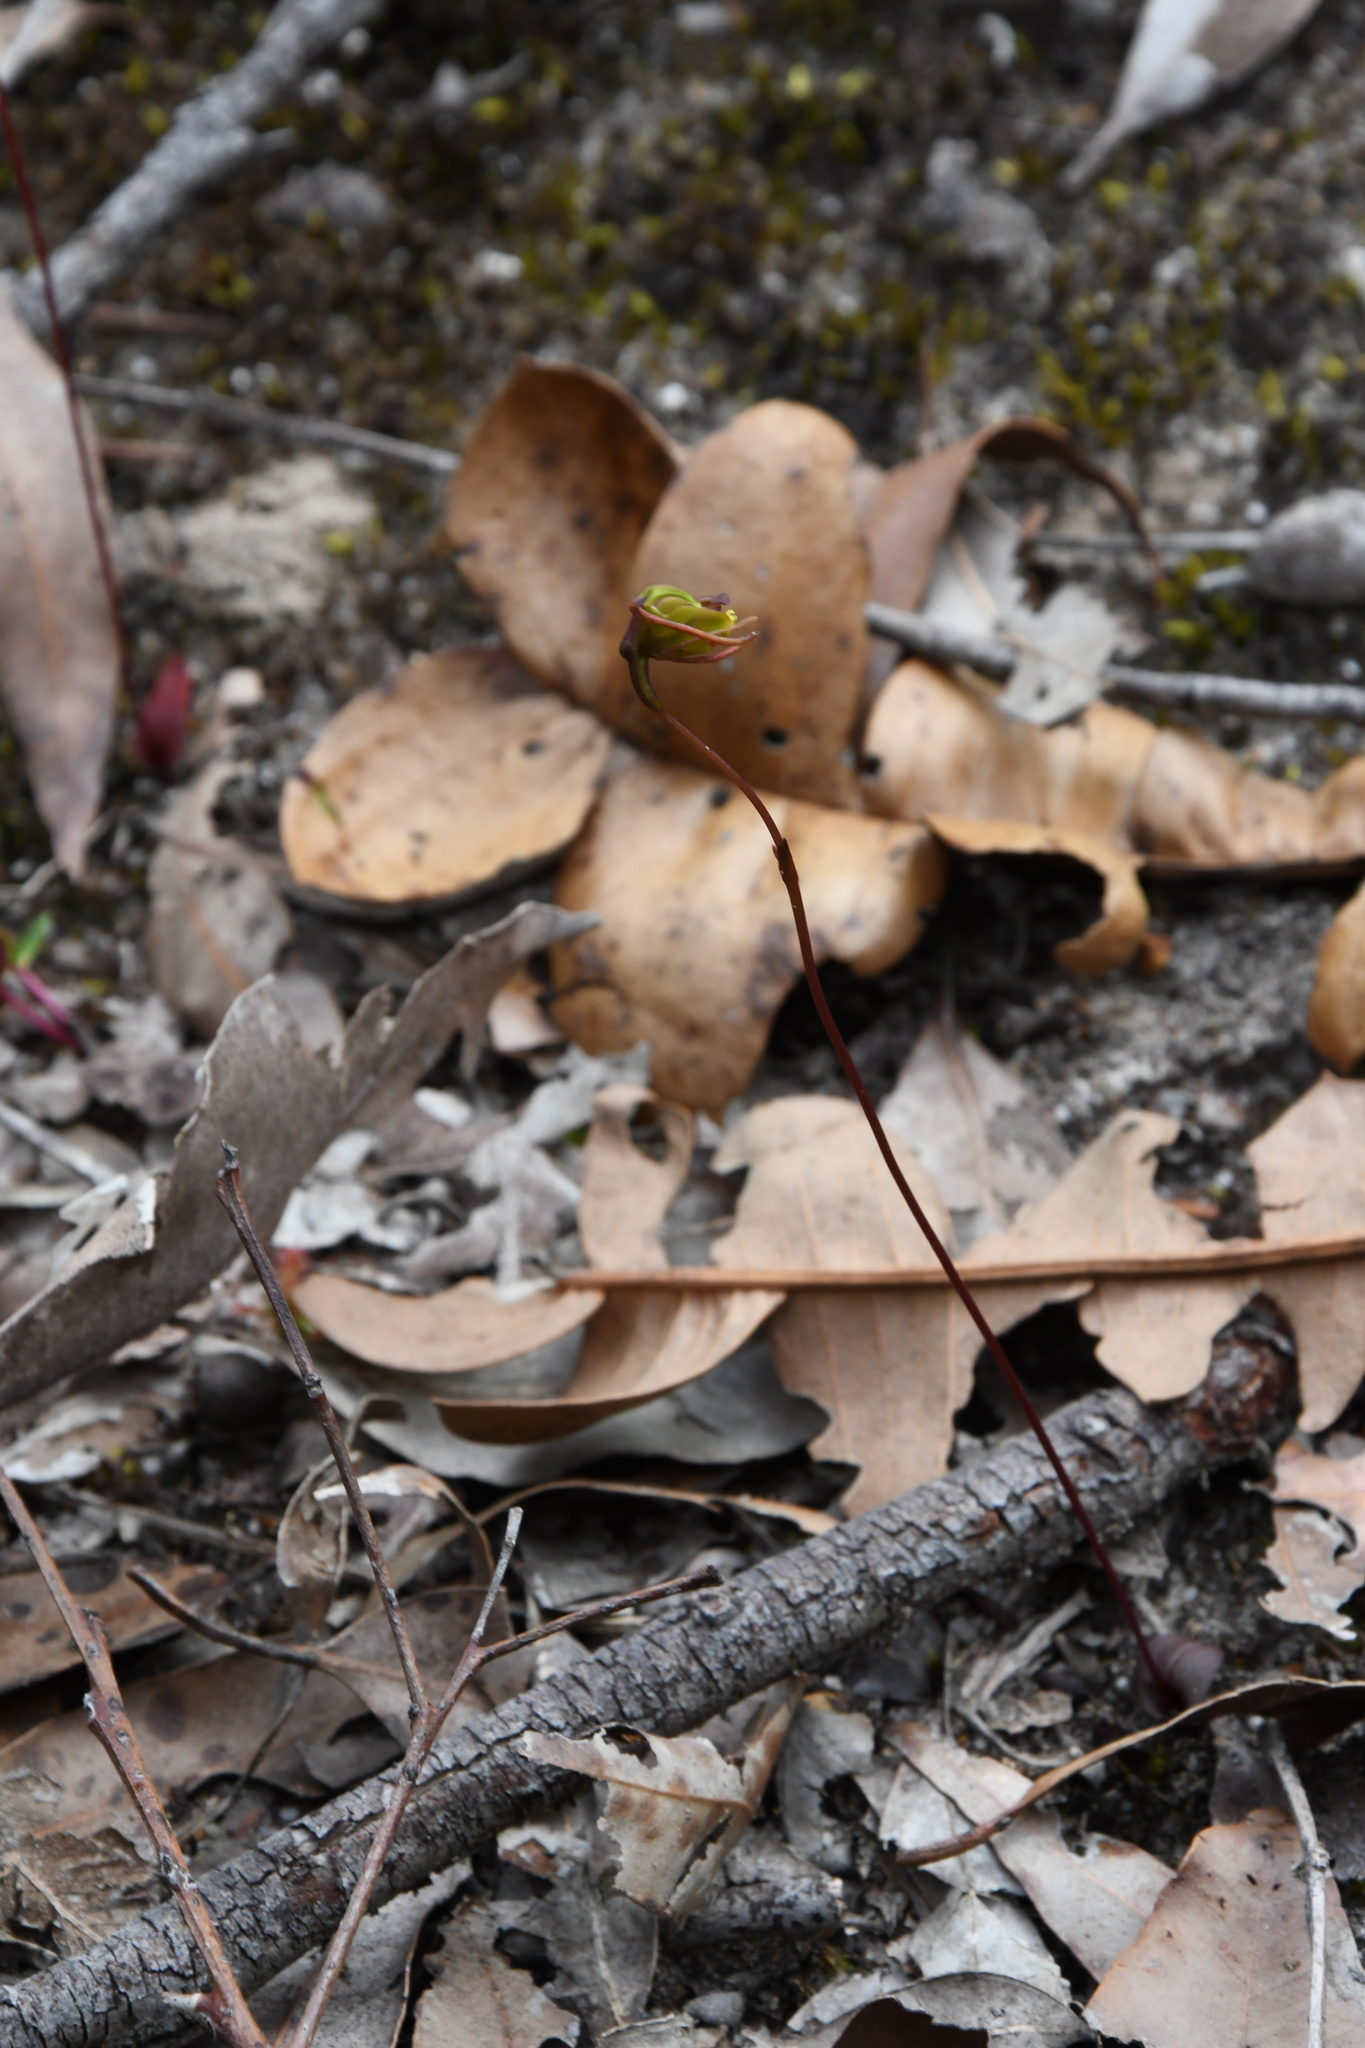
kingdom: Plantae
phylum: Tracheophyta
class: Liliopsida
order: Asparagales
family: Orchidaceae
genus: Caleana
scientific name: Caleana nigrita
